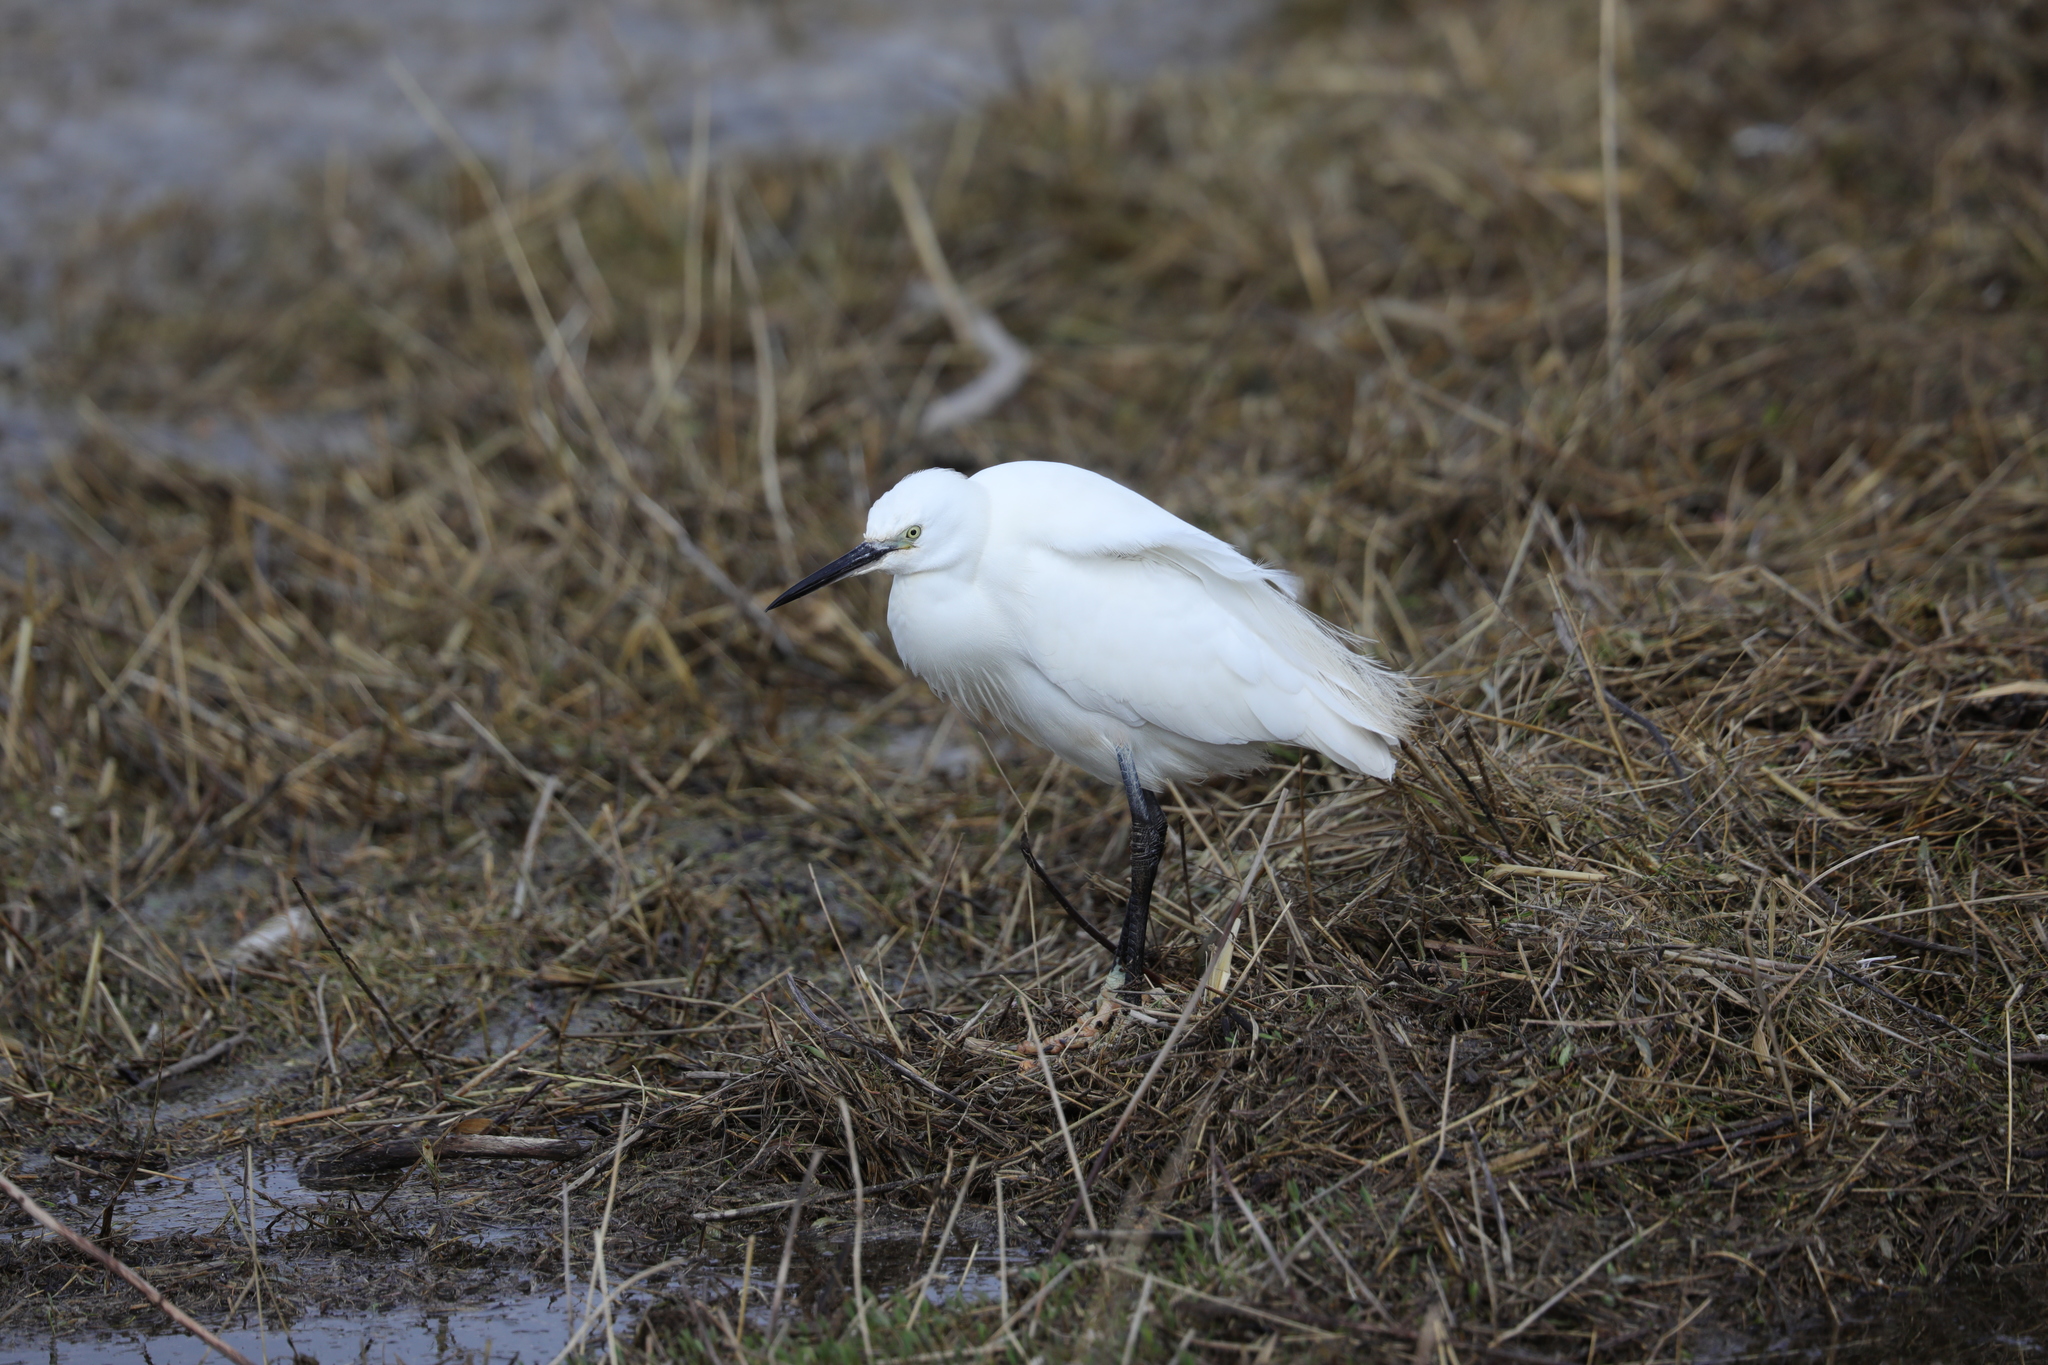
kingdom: Animalia
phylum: Chordata
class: Aves
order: Pelecaniformes
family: Ardeidae
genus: Egretta
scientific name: Egretta garzetta
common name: Little egret
